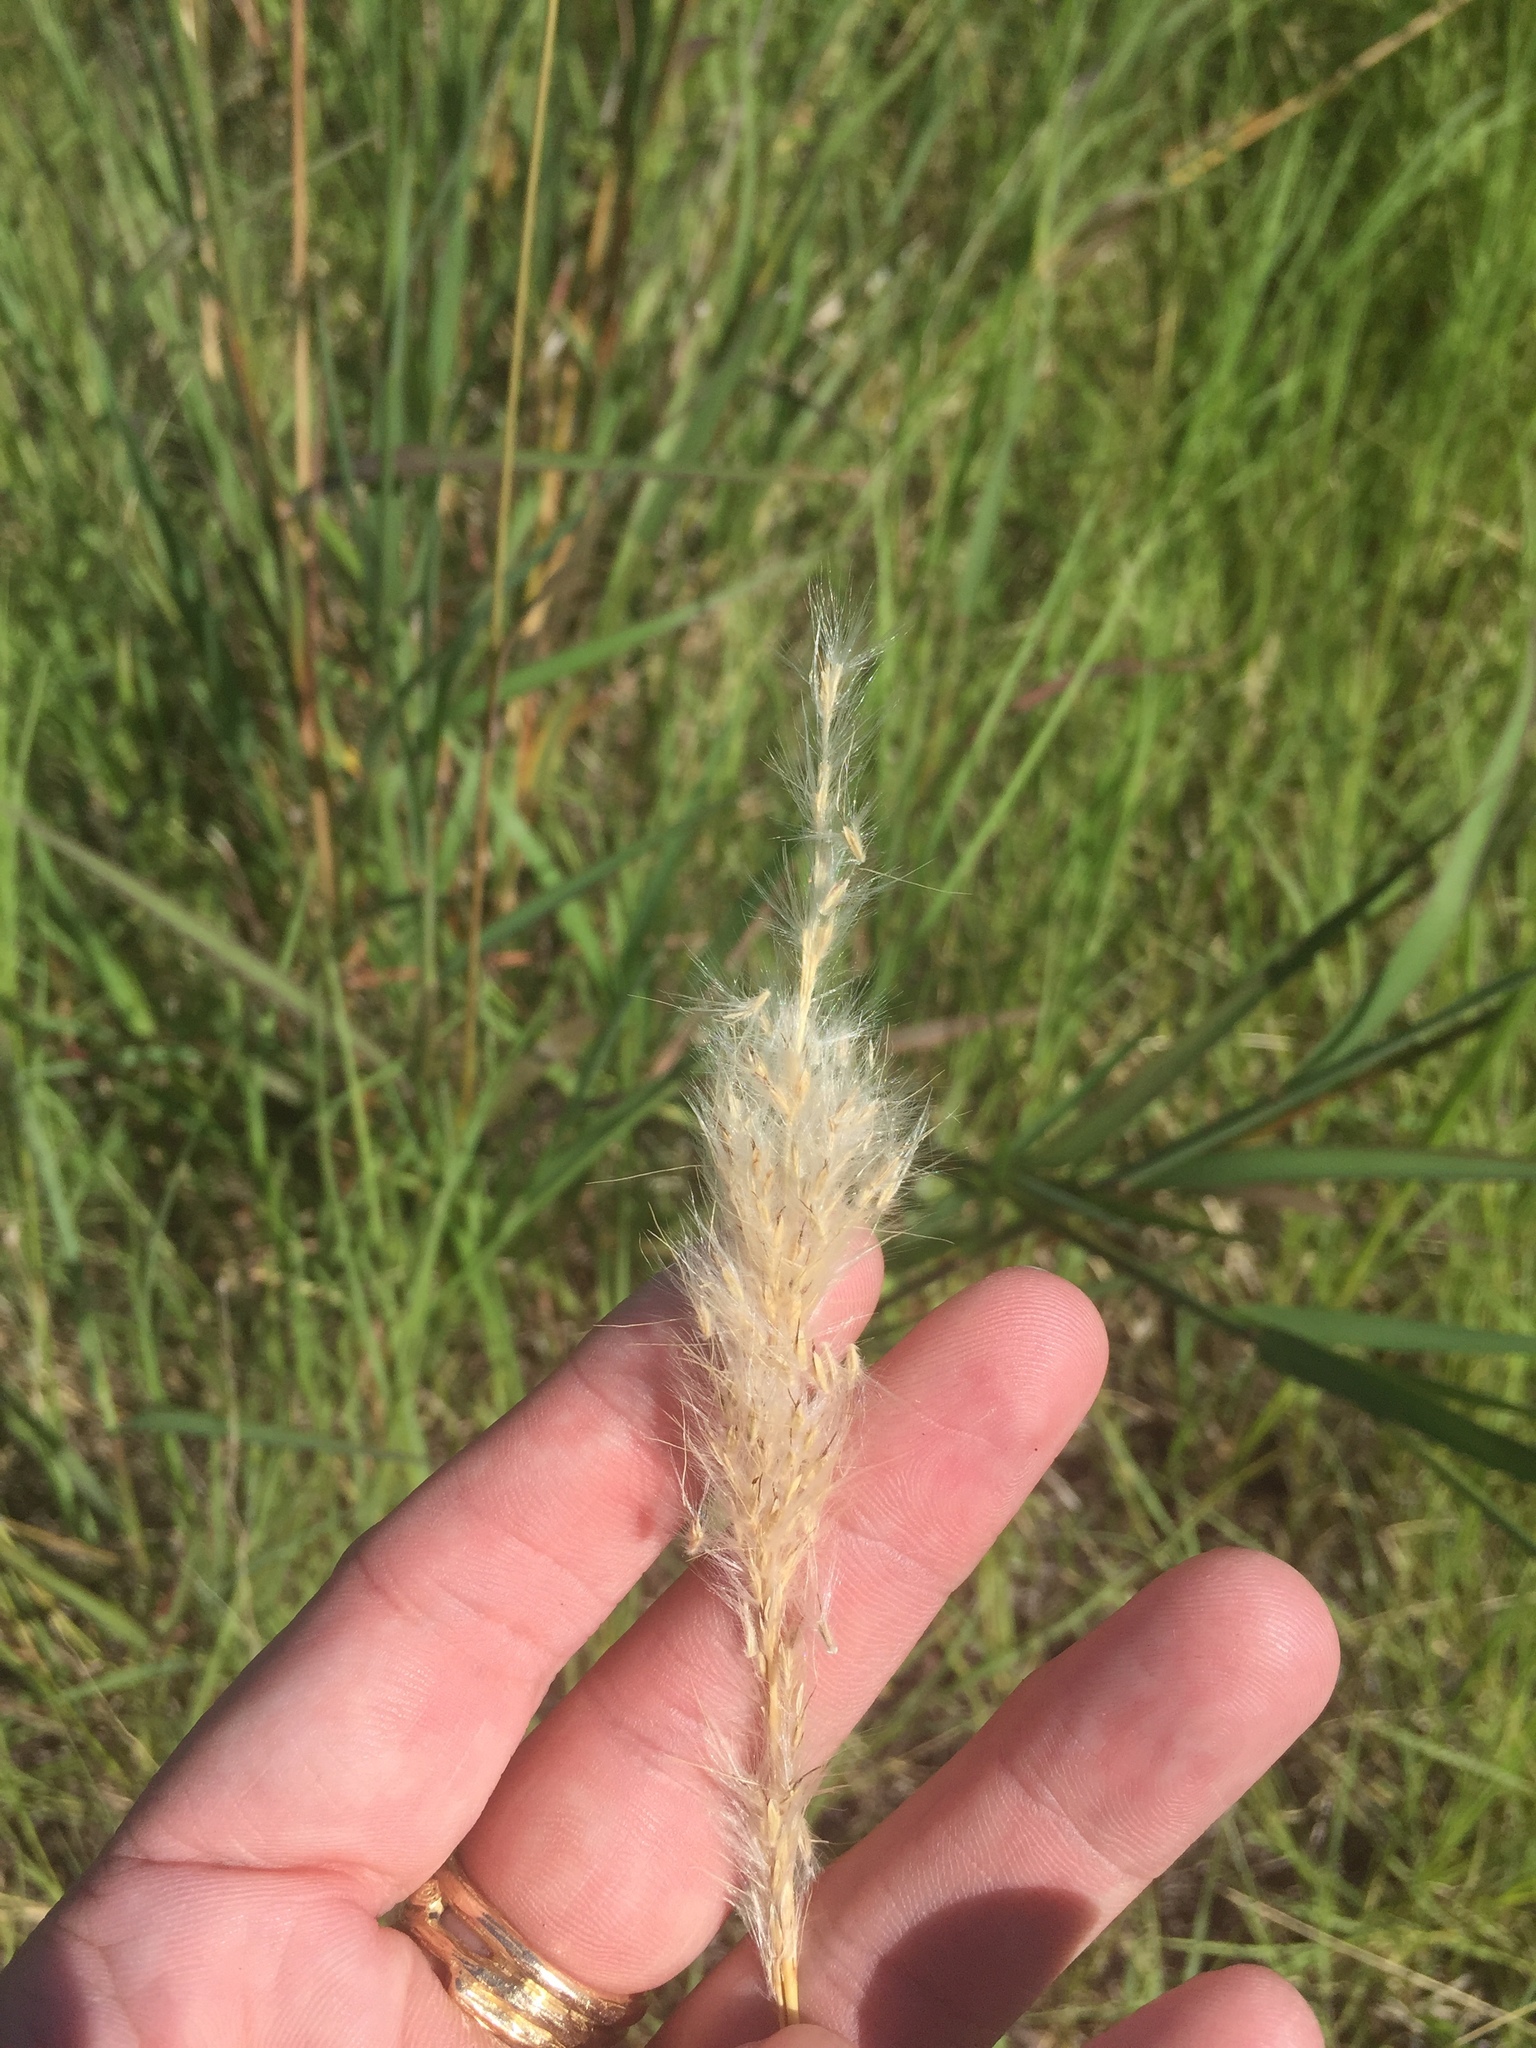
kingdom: Plantae
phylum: Tracheophyta
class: Liliopsida
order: Poales
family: Poaceae
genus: Bothriochloa
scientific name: Bothriochloa torreyana
